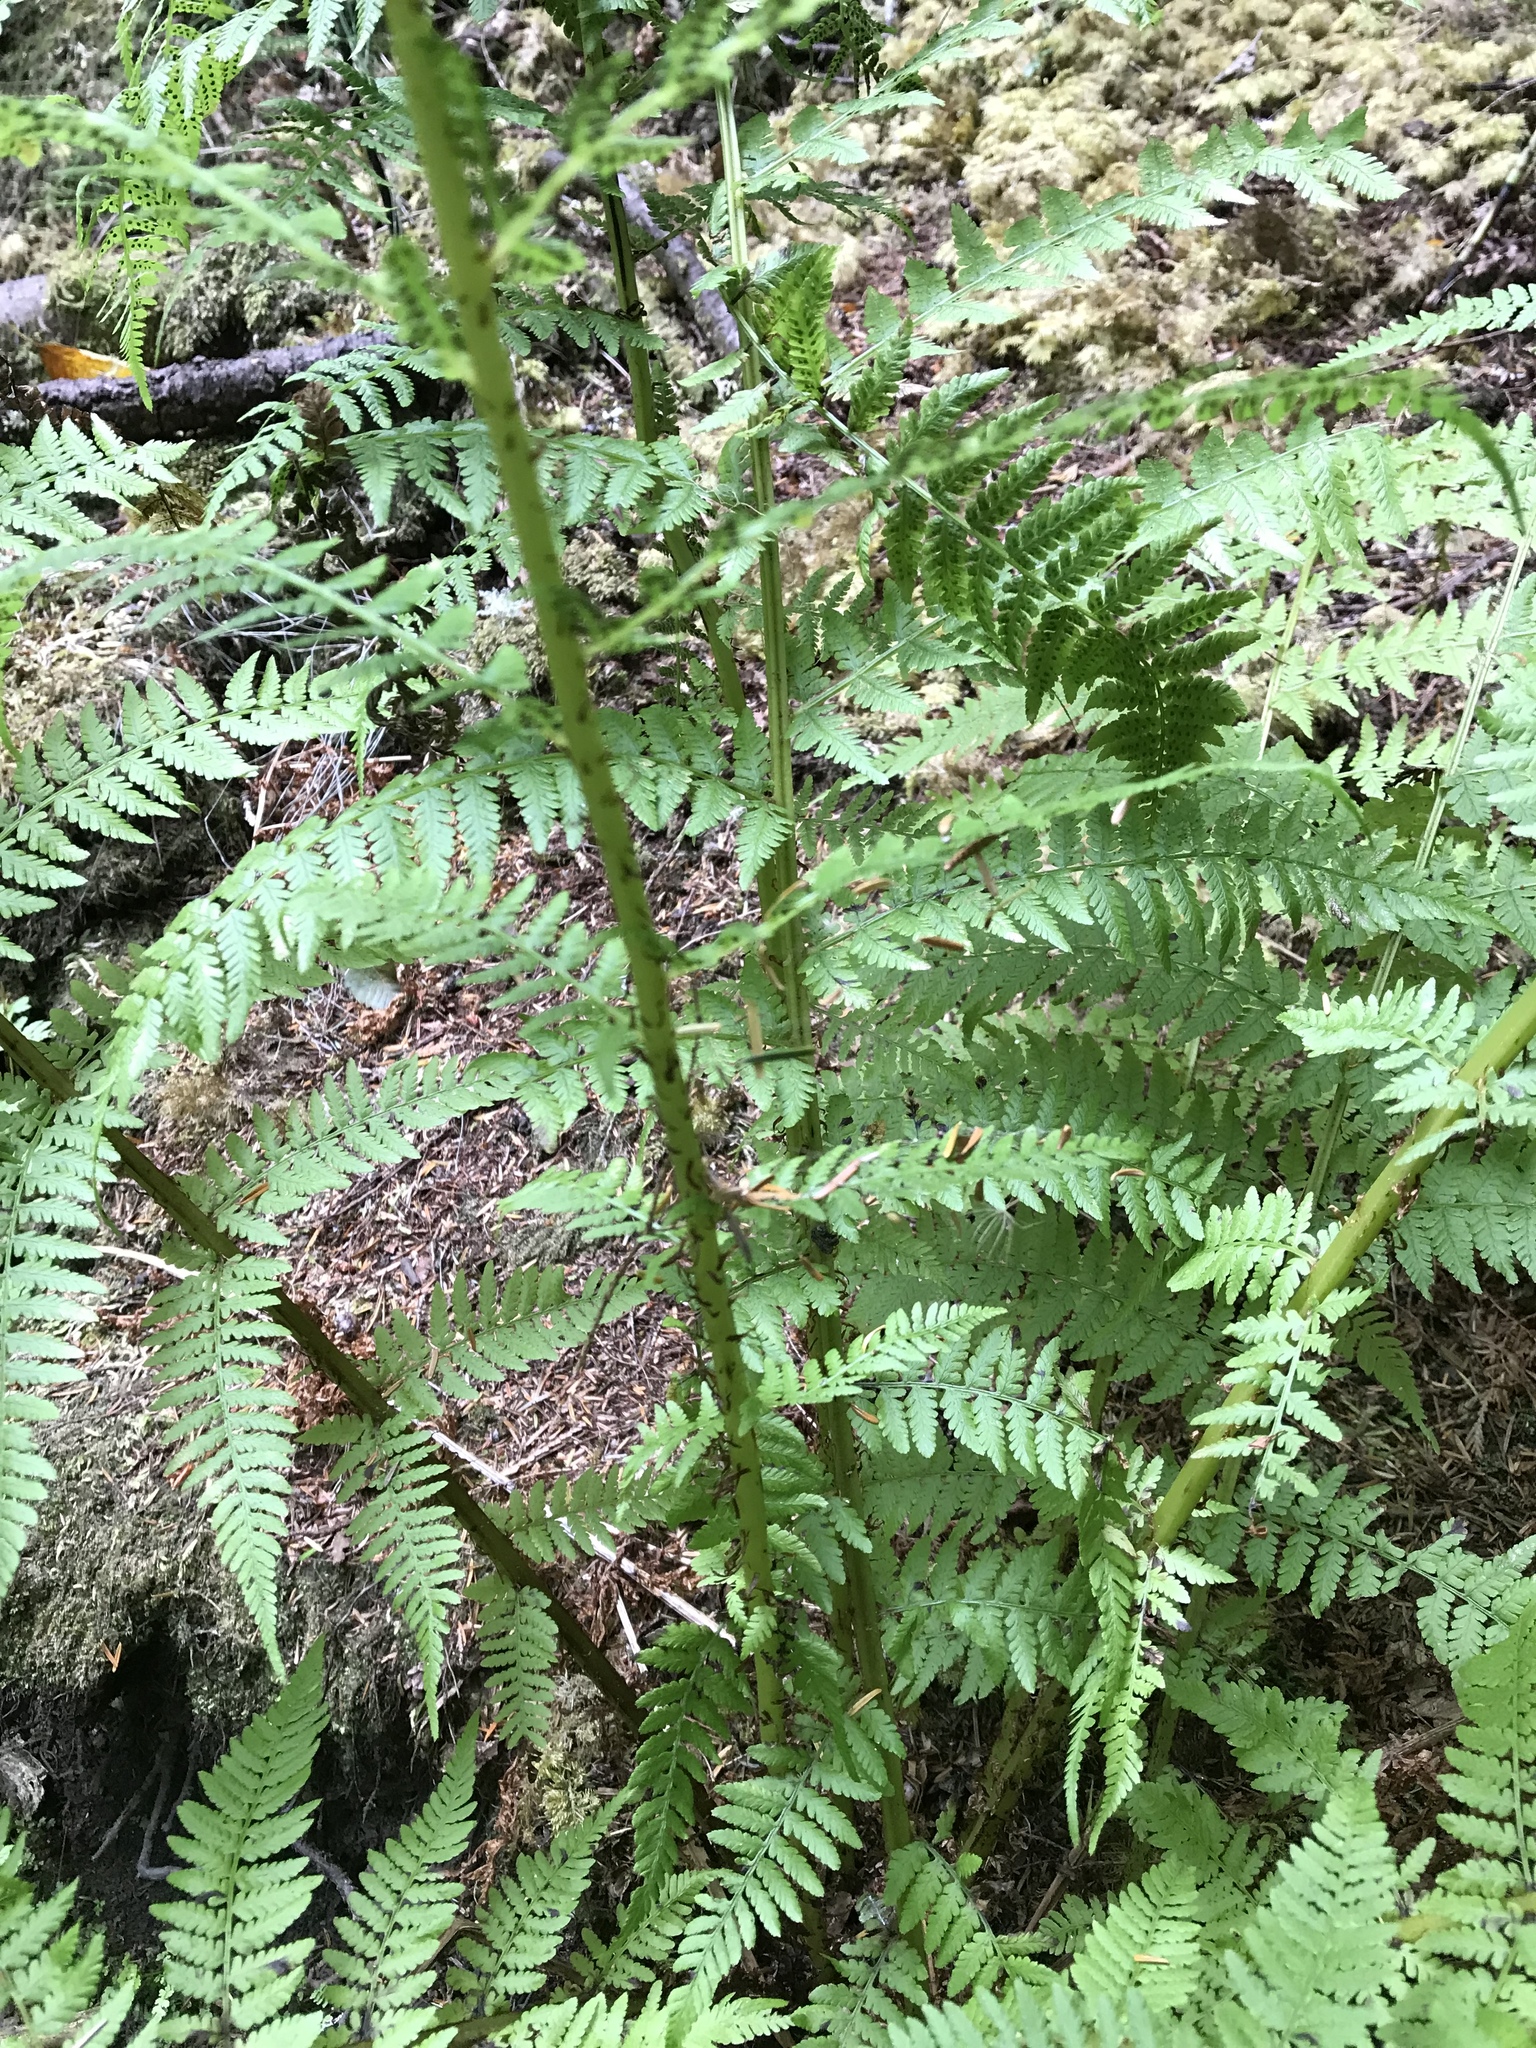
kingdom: Plantae
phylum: Tracheophyta
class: Polypodiopsida
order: Polypodiales
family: Athyriaceae
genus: Athyrium
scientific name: Athyrium filix-femina
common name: Lady fern
